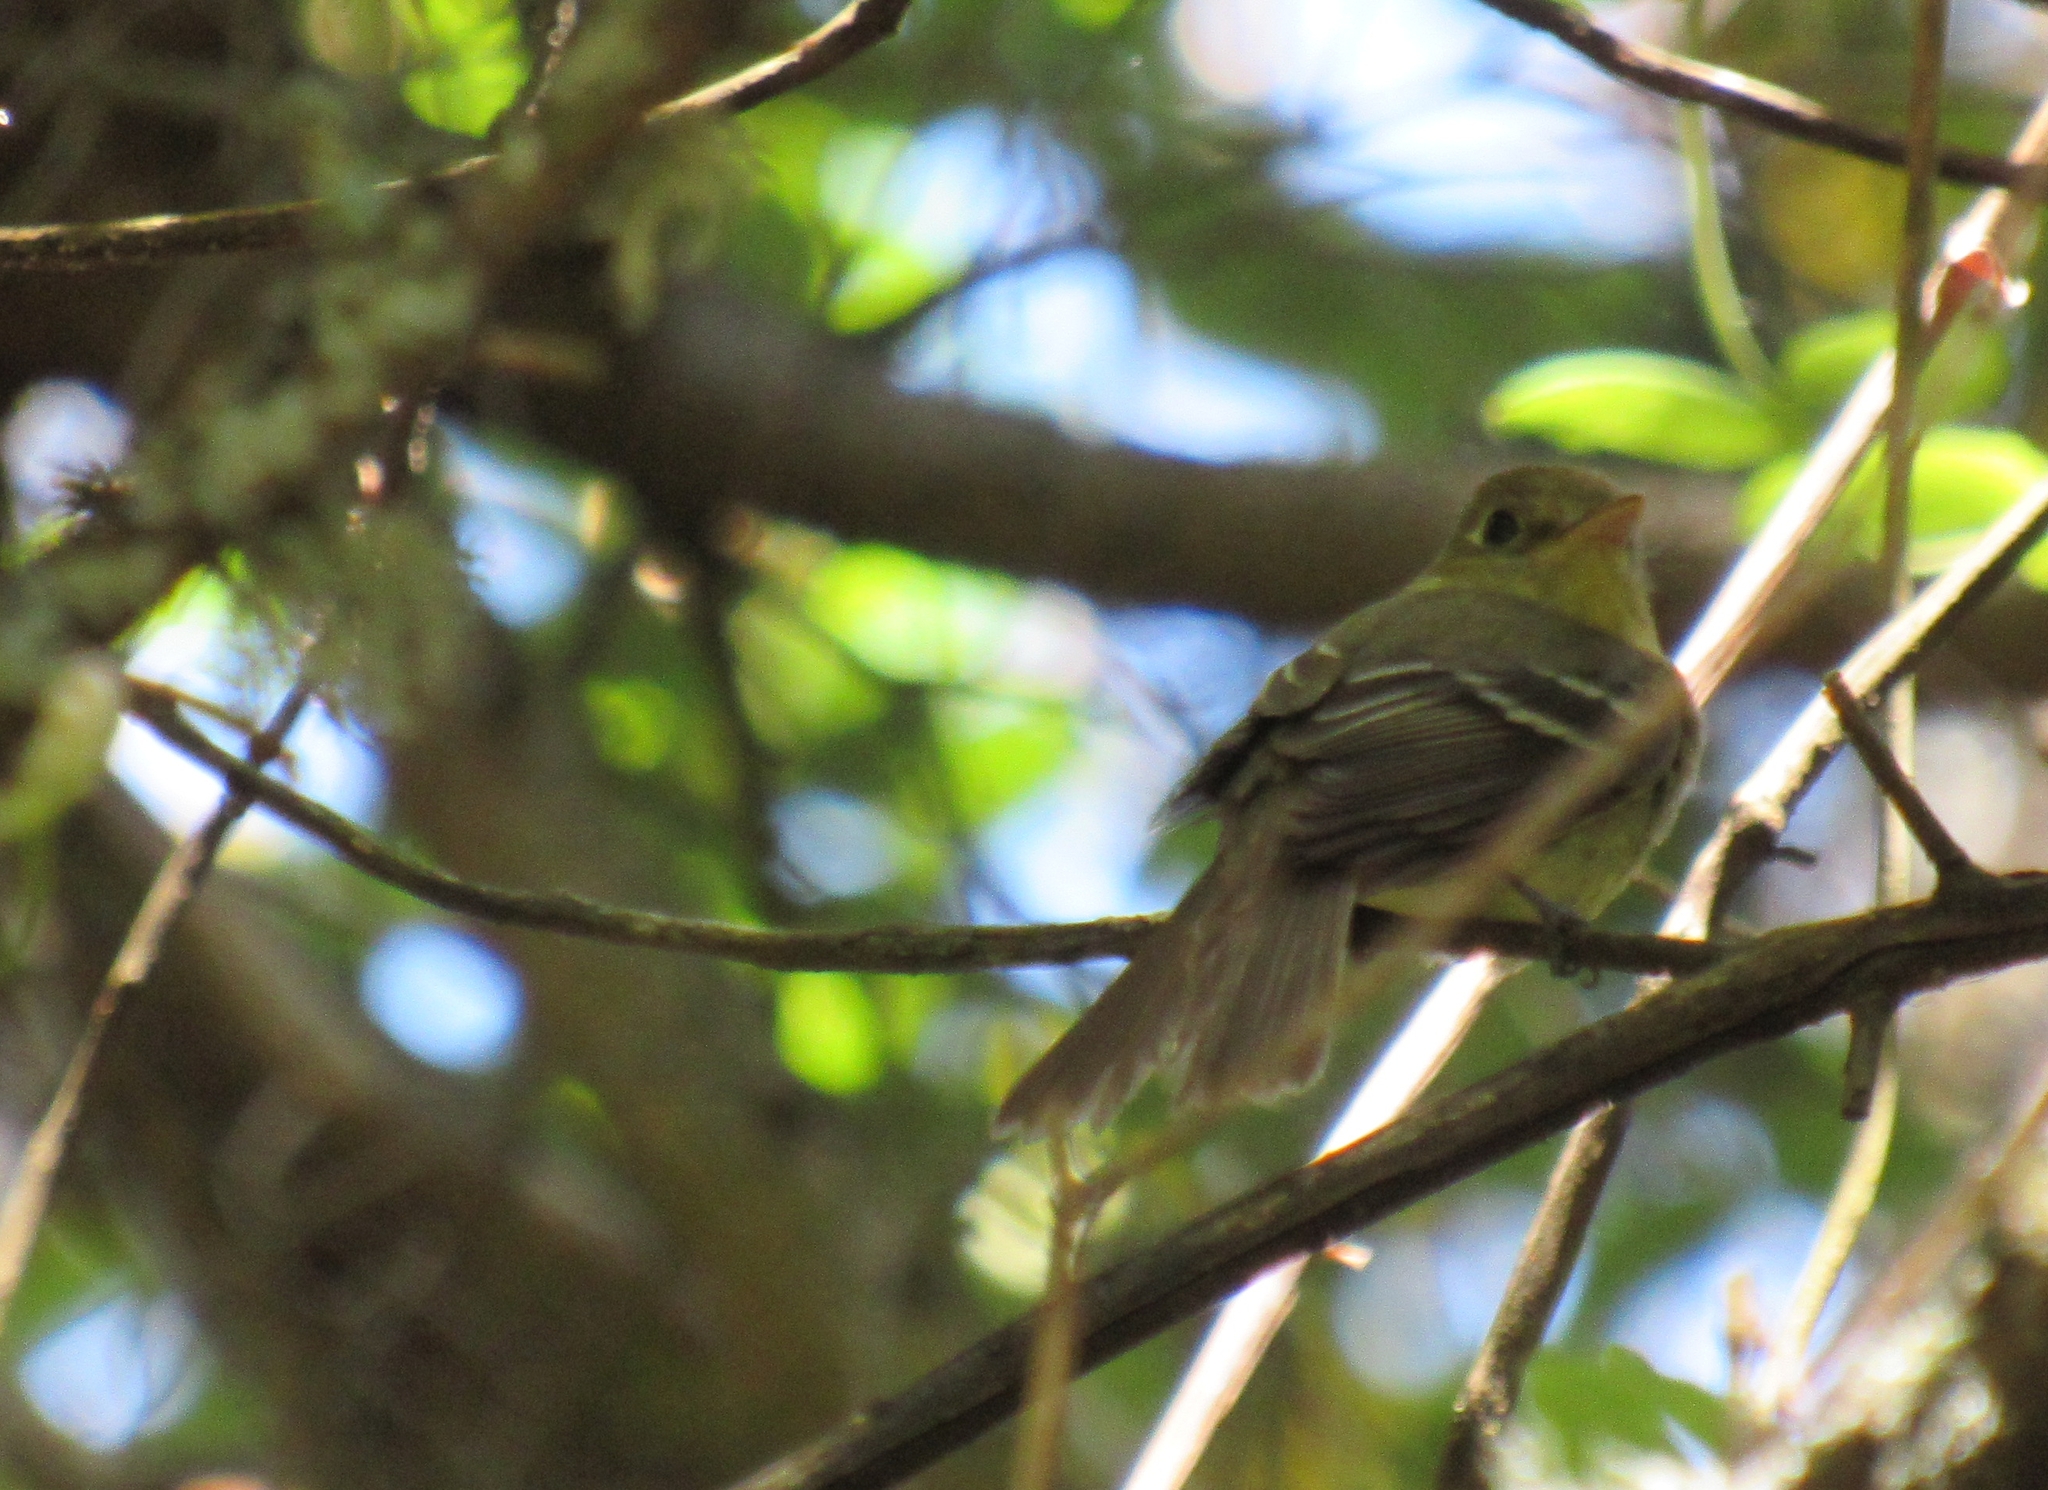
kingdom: Animalia
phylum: Chordata
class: Aves
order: Passeriformes
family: Tyrannidae
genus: Empidonax
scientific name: Empidonax difficilis
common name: Pacific-slope flycatcher
